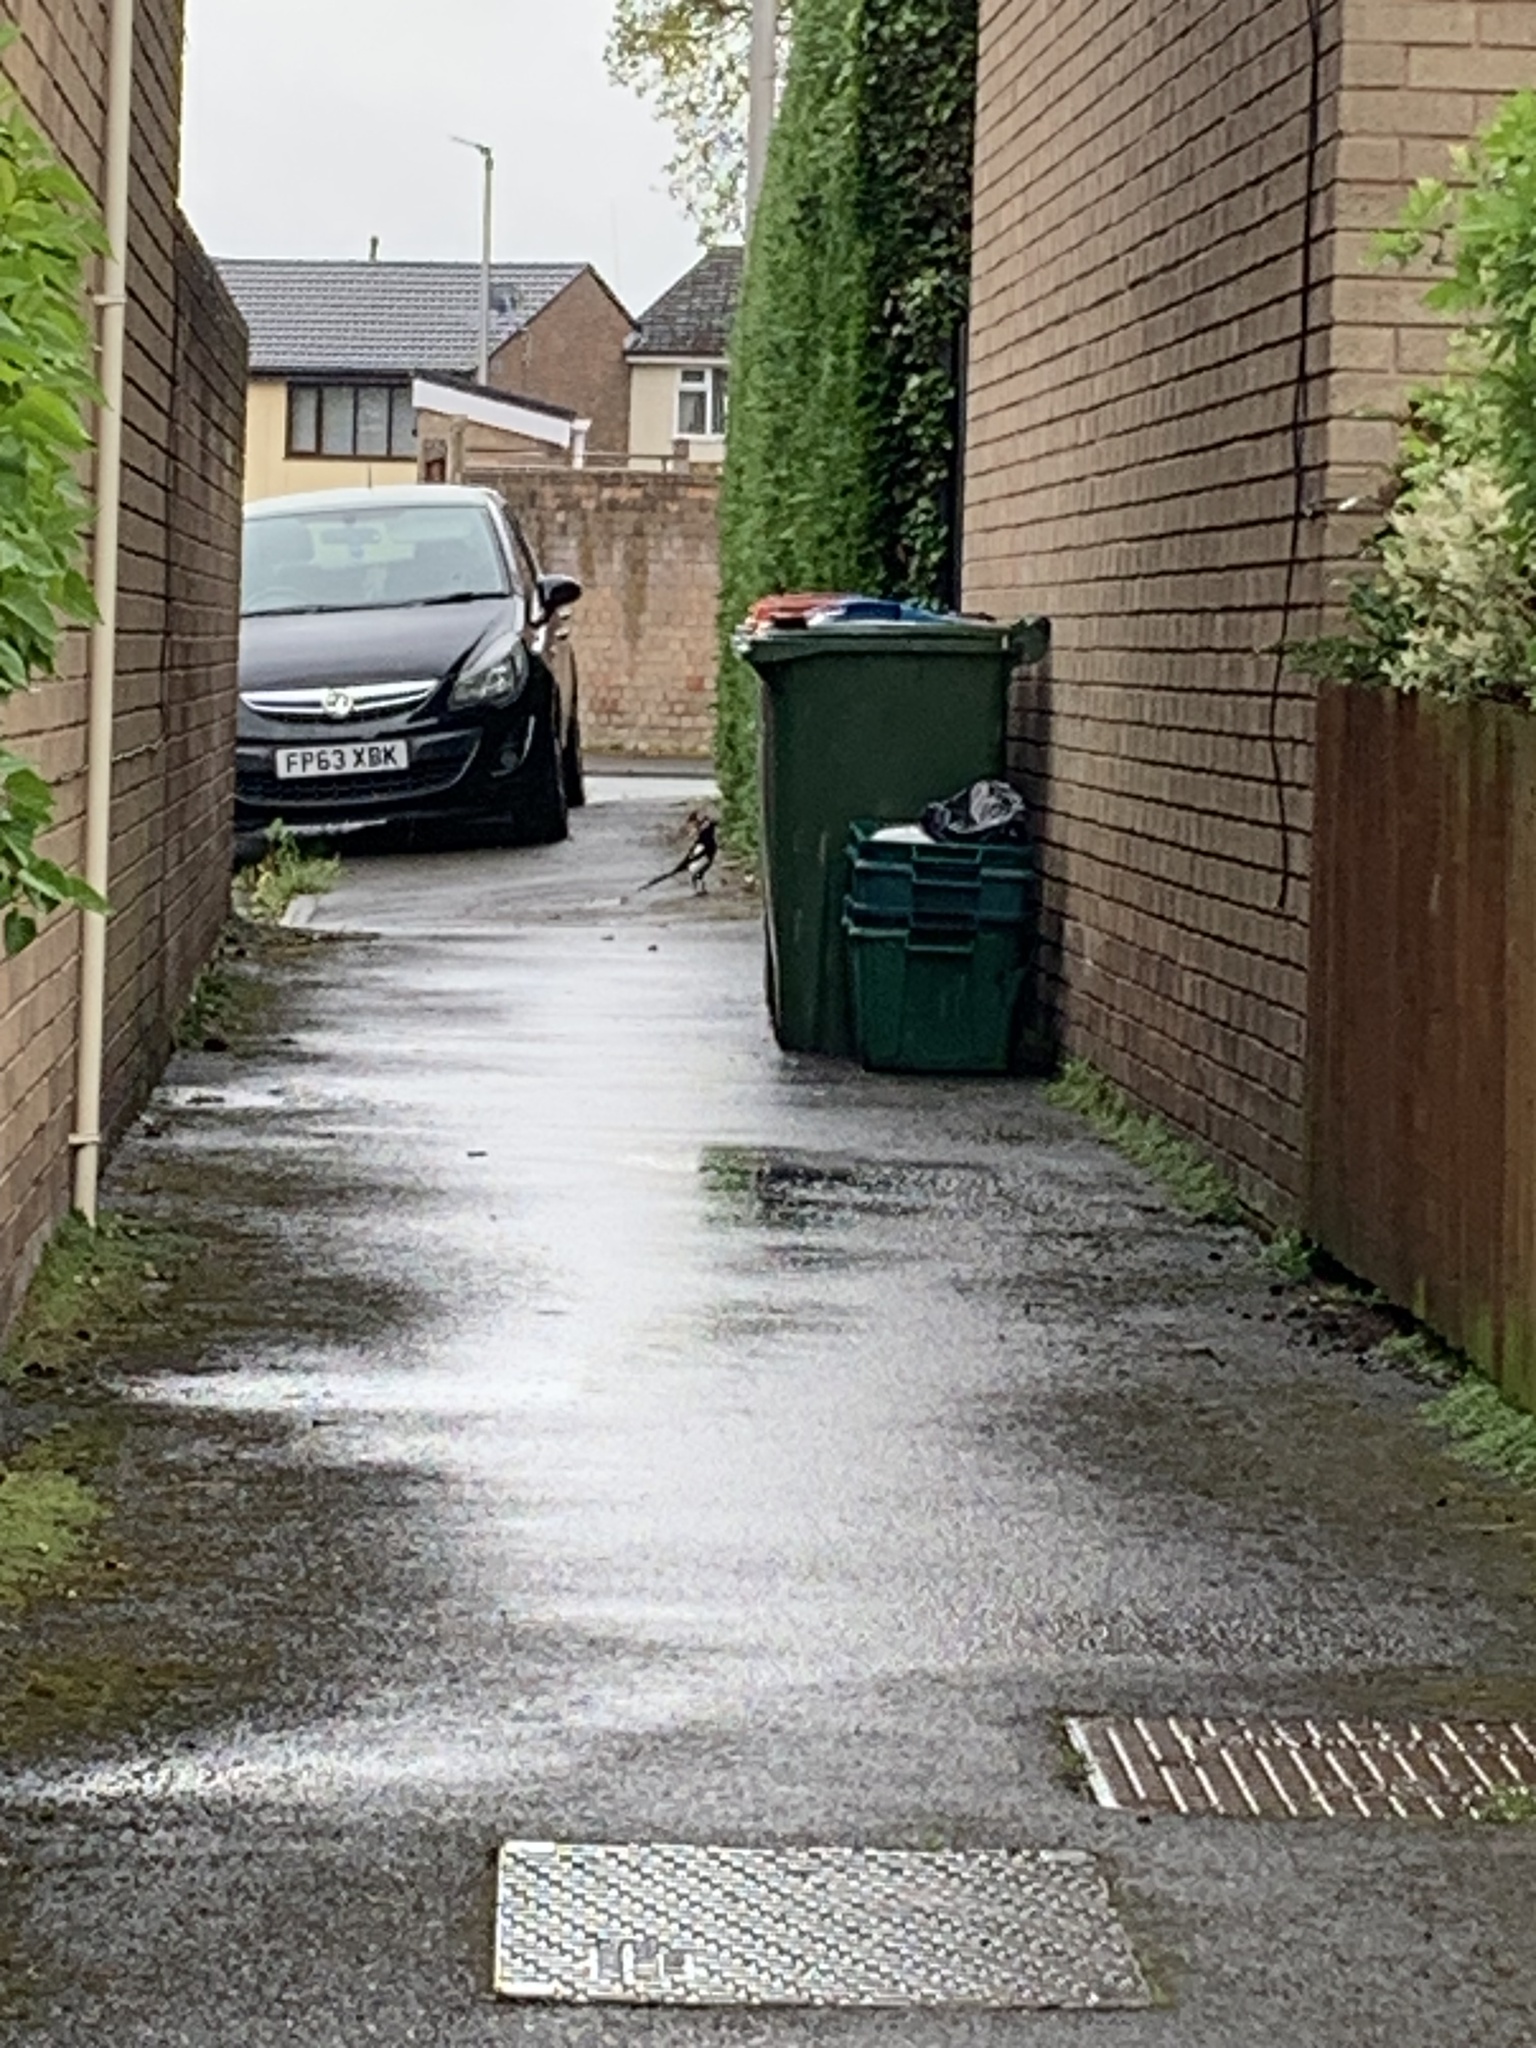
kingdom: Animalia
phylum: Chordata
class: Aves
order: Passeriformes
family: Corvidae
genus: Pica
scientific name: Pica pica
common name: Eurasian magpie
